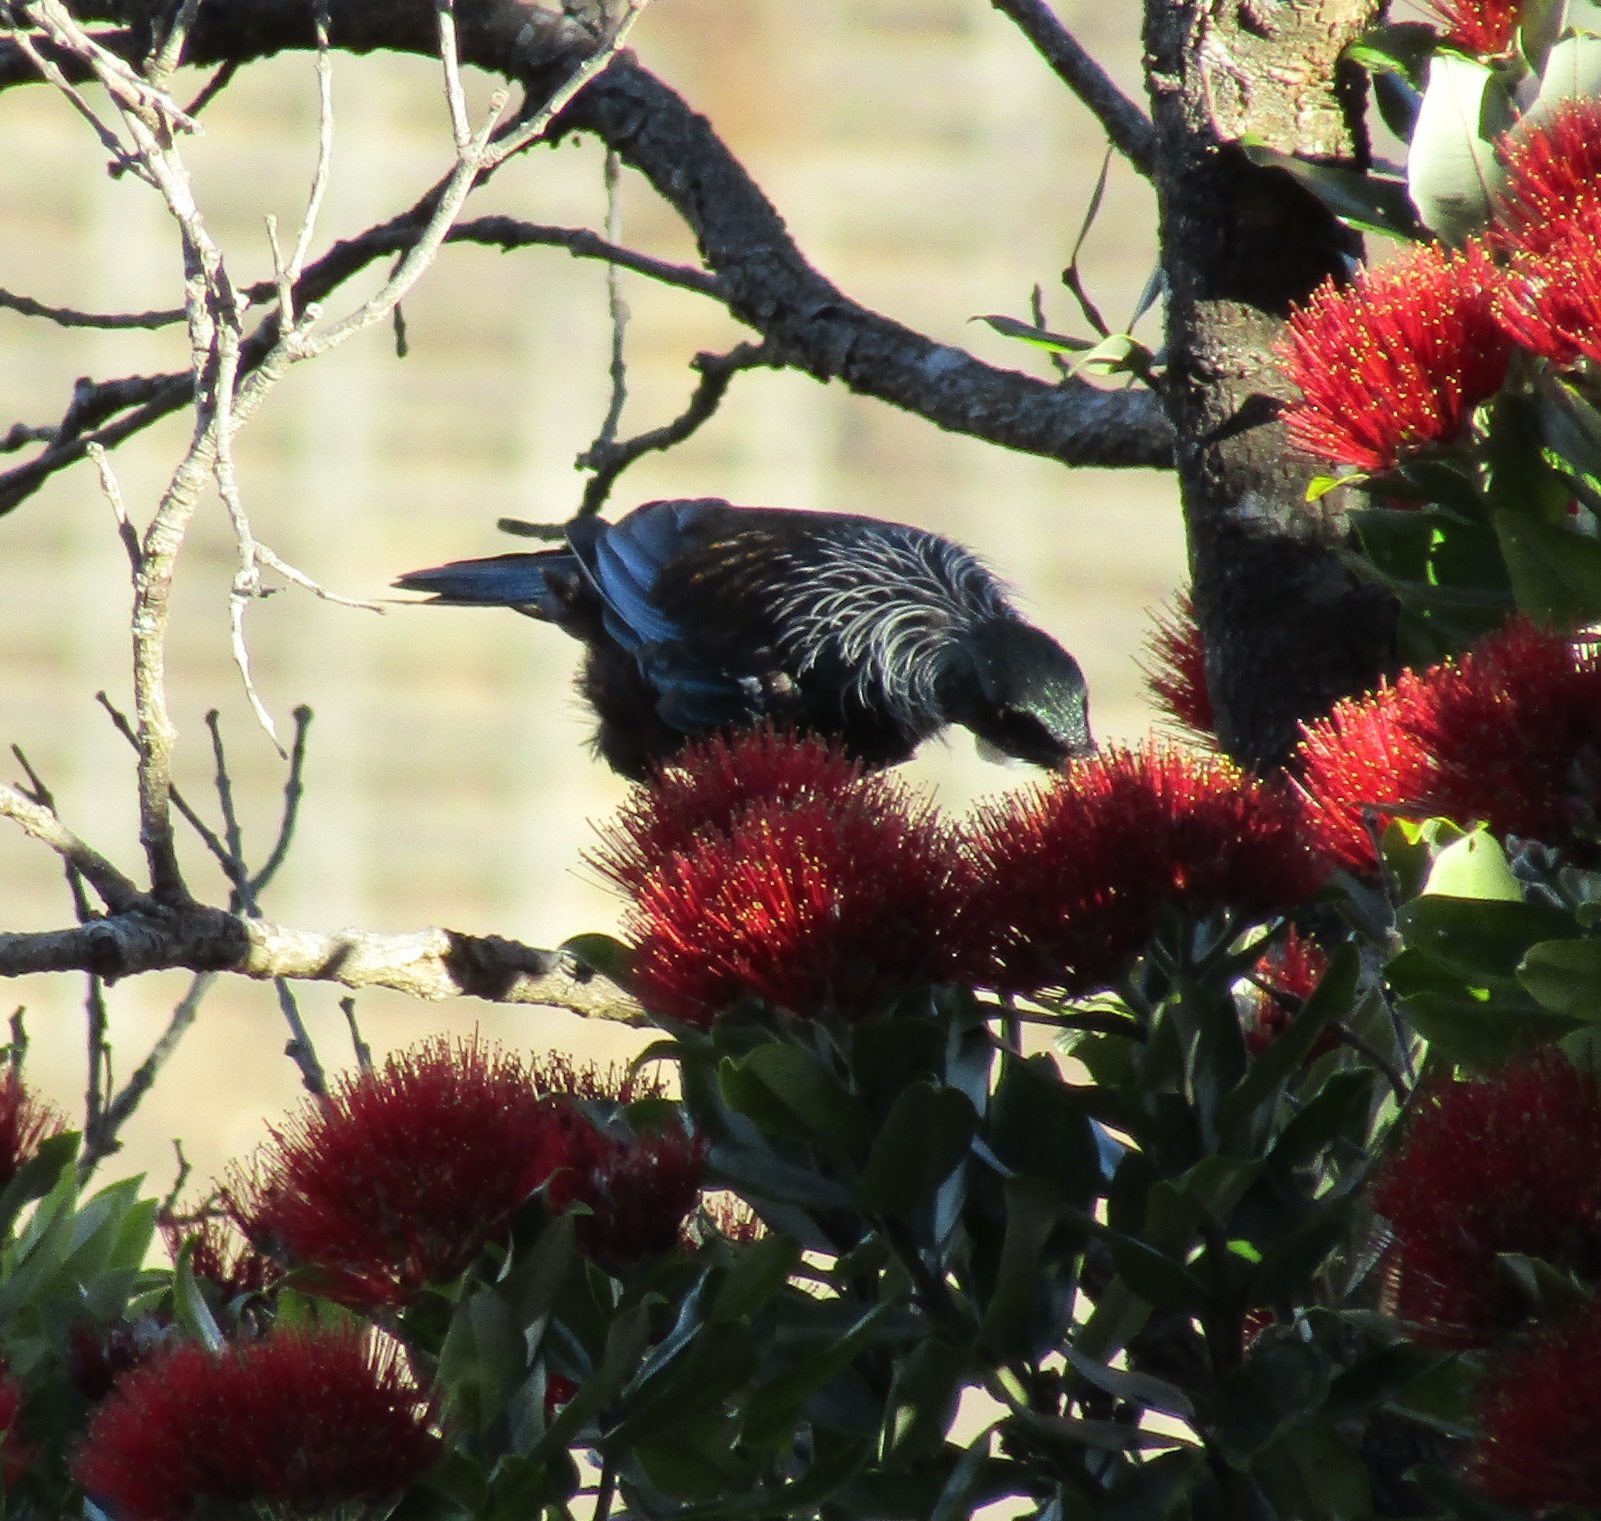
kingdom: Animalia
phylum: Chordata
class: Aves
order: Passeriformes
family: Meliphagidae
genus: Prosthemadera
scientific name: Prosthemadera novaeseelandiae
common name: Tui
